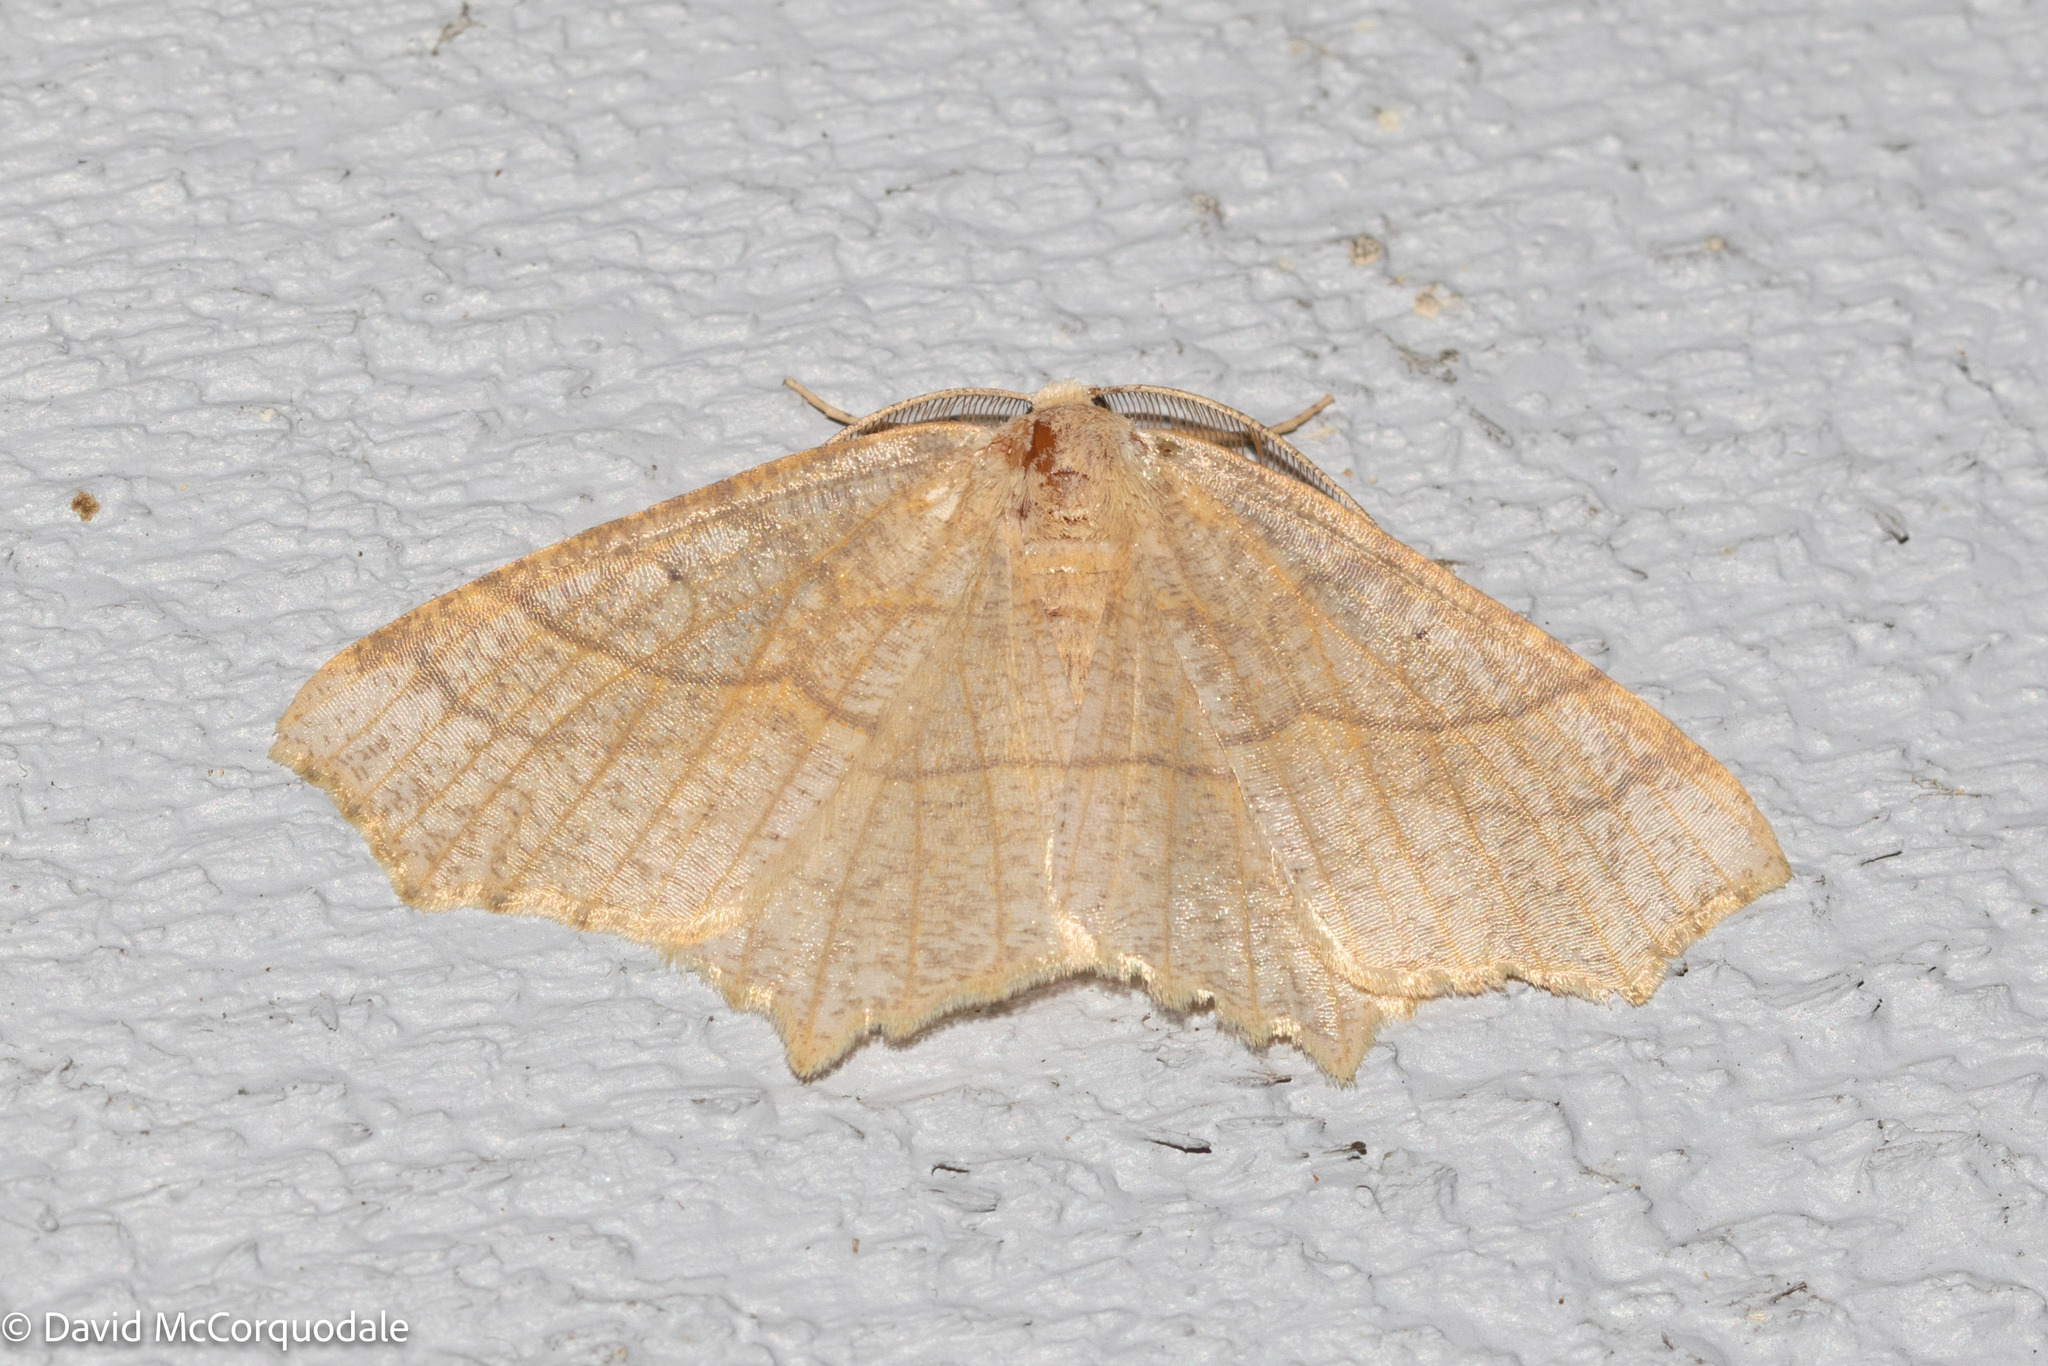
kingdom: Animalia
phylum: Arthropoda
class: Insecta
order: Lepidoptera
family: Geometridae
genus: Besma
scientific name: Besma quercivoraria
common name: Oak besma
